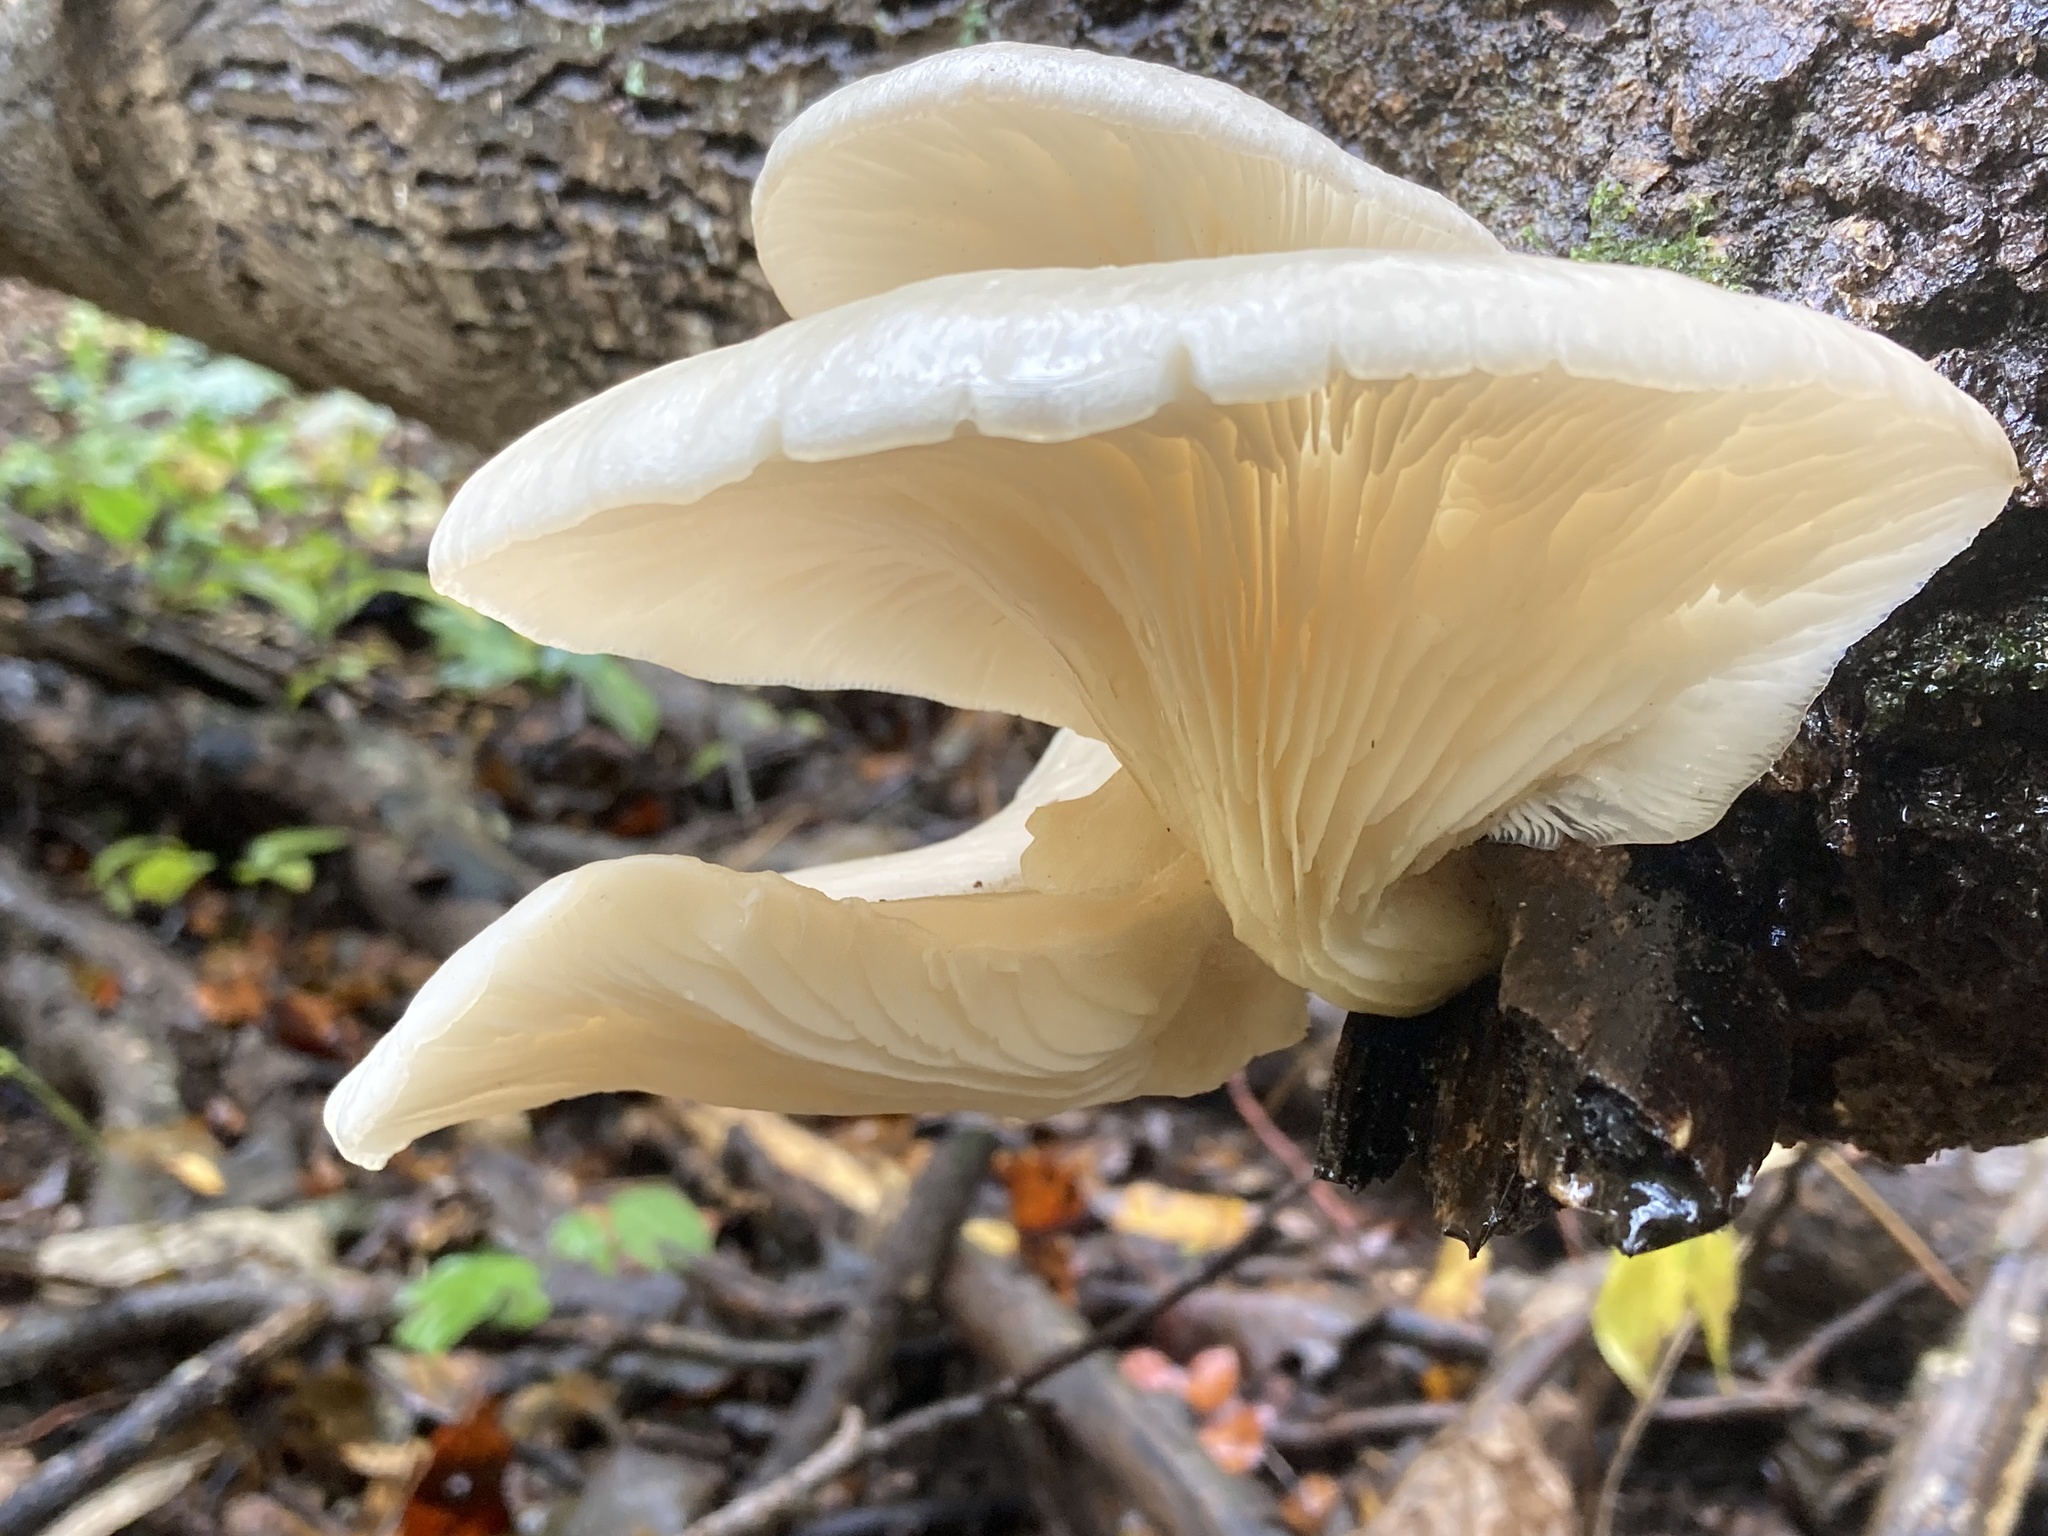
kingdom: Fungi
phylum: Basidiomycota
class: Agaricomycetes
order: Agaricales
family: Pleurotaceae
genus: Pleurotus
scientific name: Pleurotus ostreatus
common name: Oyster mushroom
